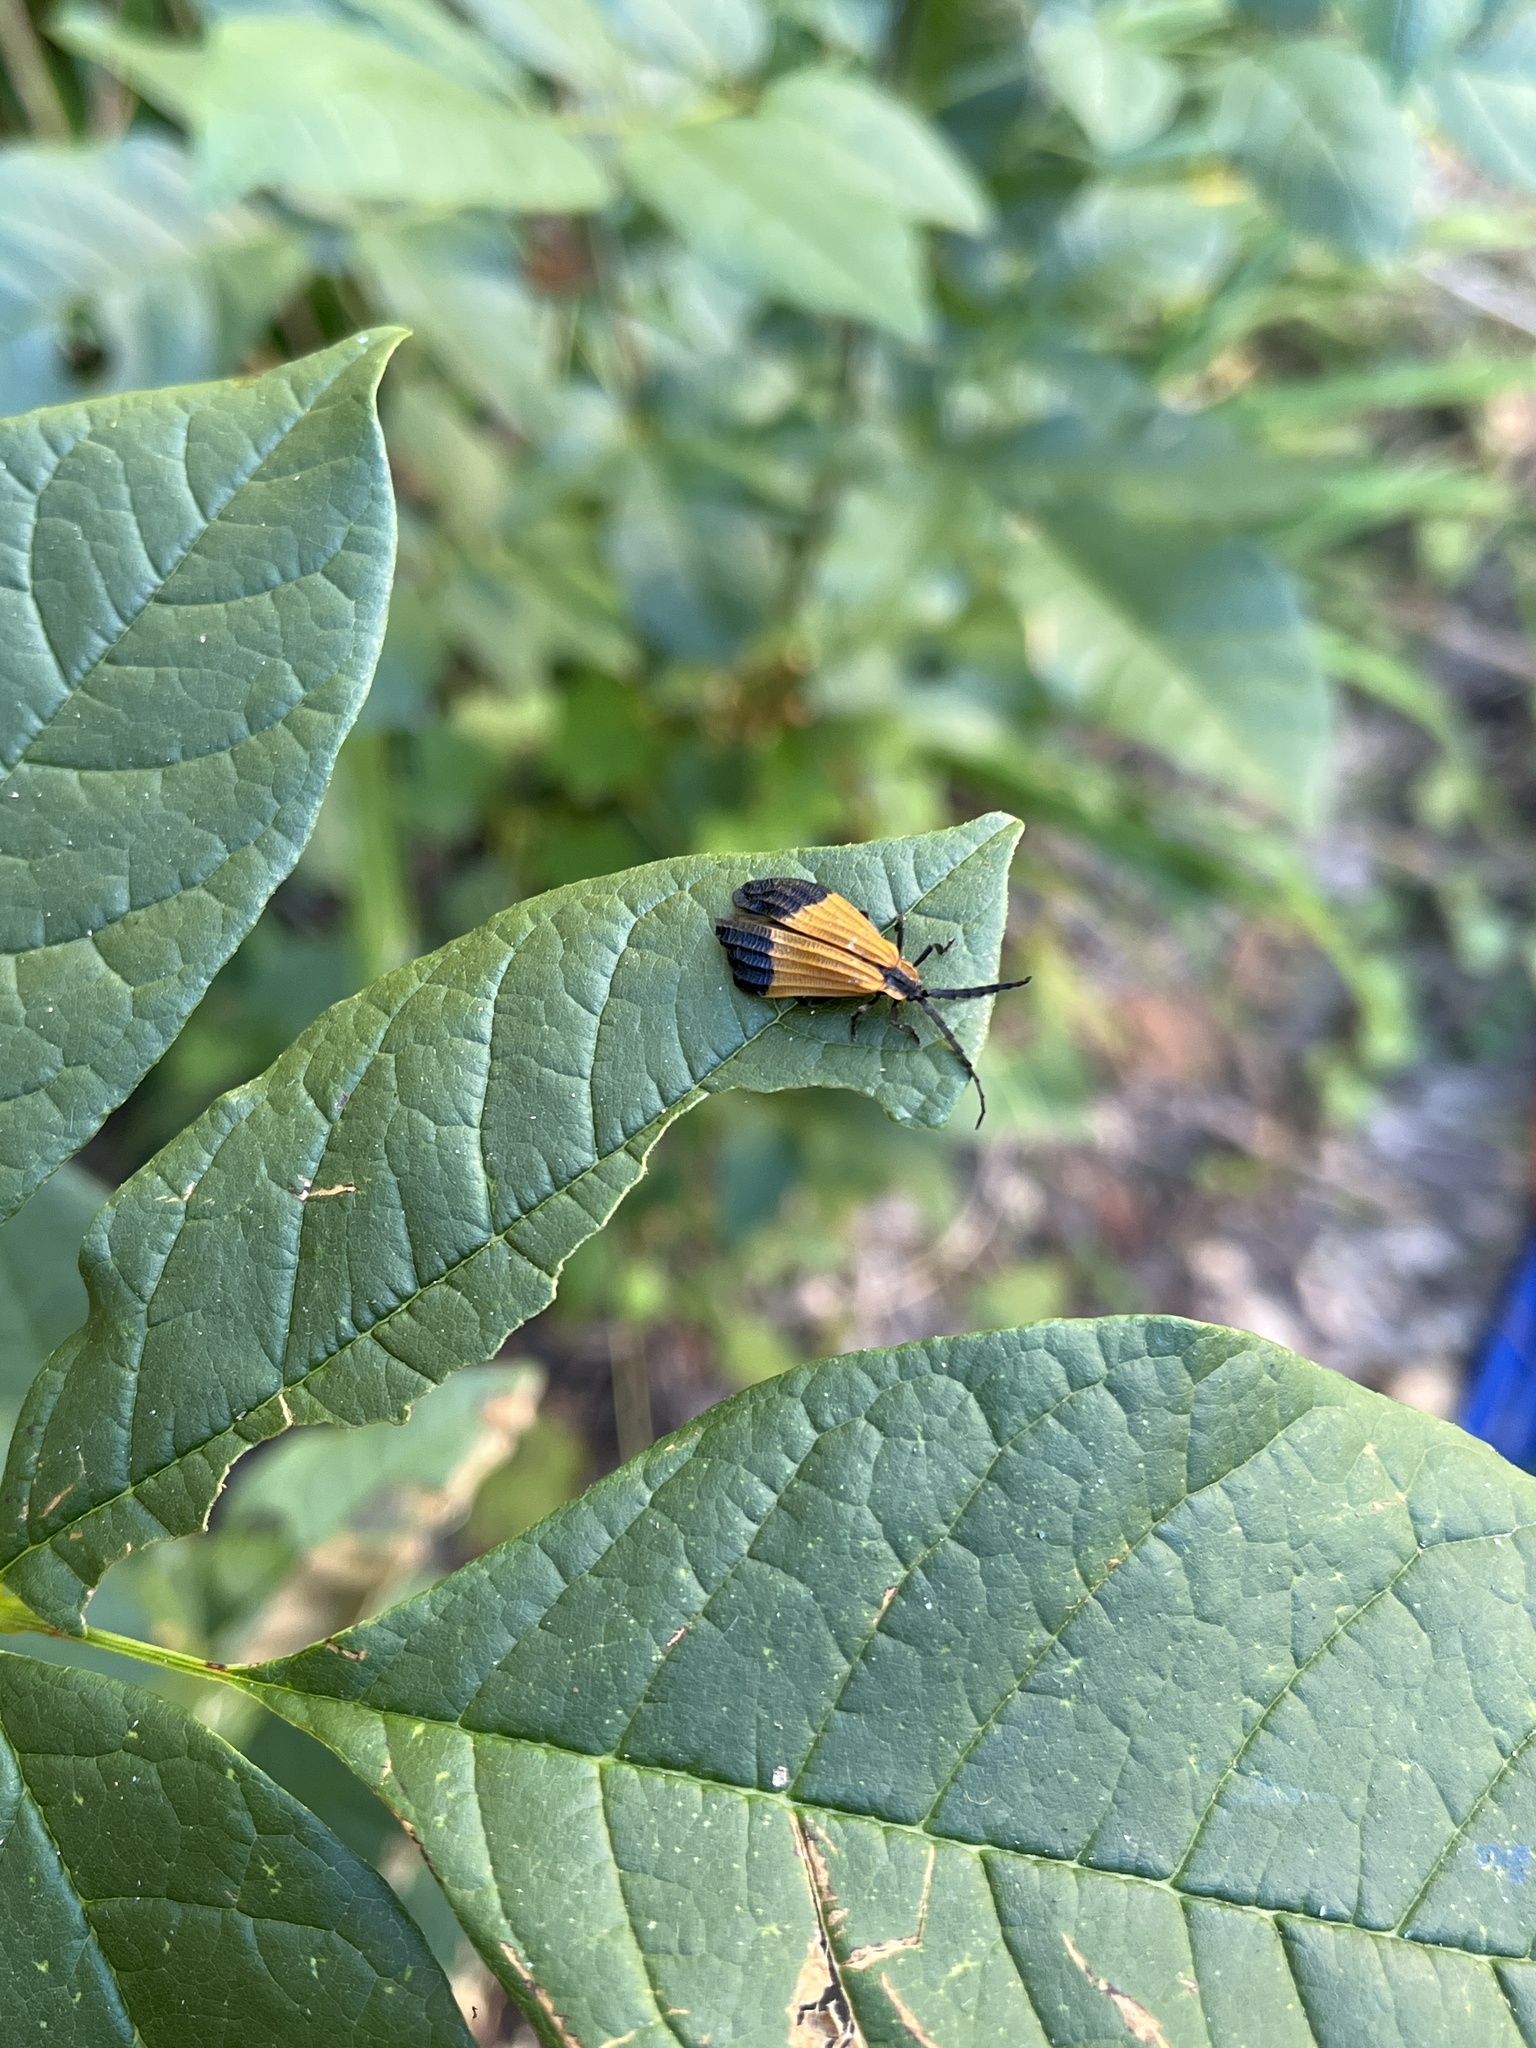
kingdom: Animalia
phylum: Arthropoda
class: Insecta
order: Coleoptera
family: Lycidae
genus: Calopteron
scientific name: Calopteron terminale
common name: End band net-winged beetle
